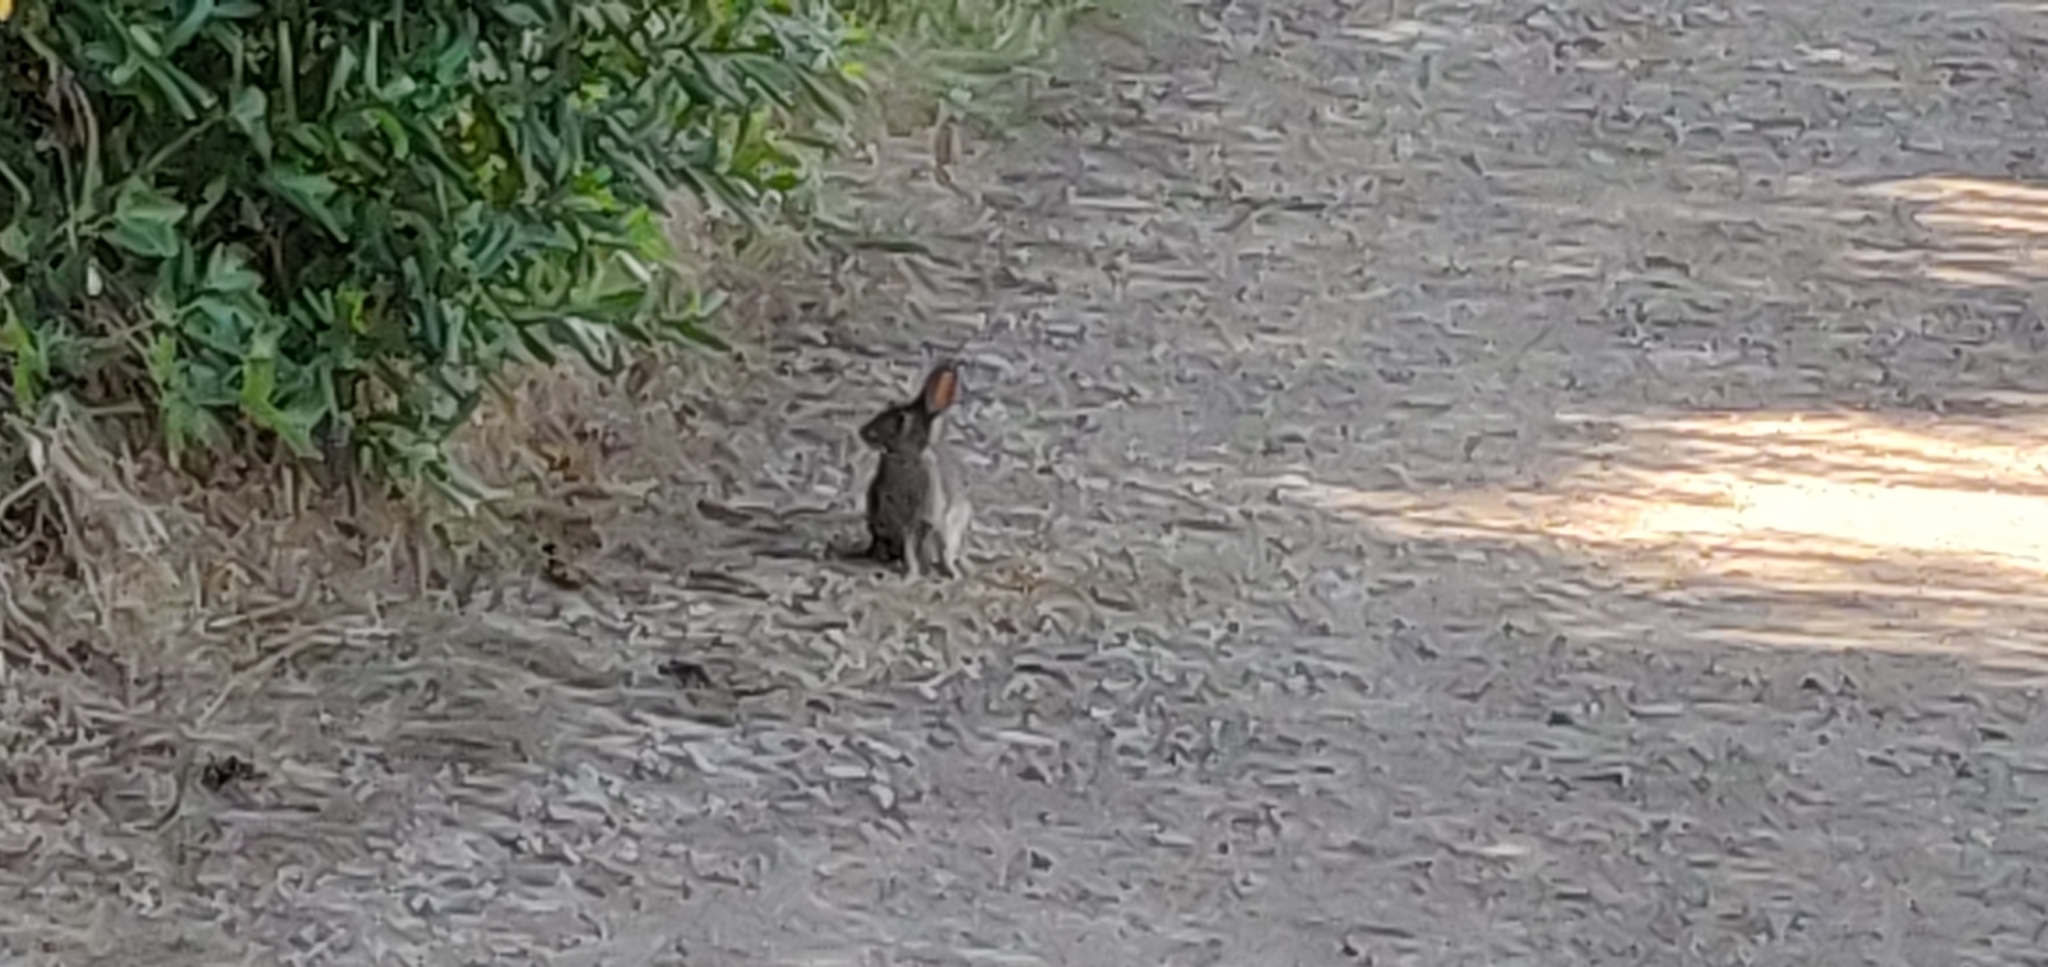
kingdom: Animalia
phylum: Chordata
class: Mammalia
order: Lagomorpha
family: Leporidae
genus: Sylvilagus
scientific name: Sylvilagus bachmani
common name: Brush rabbit
